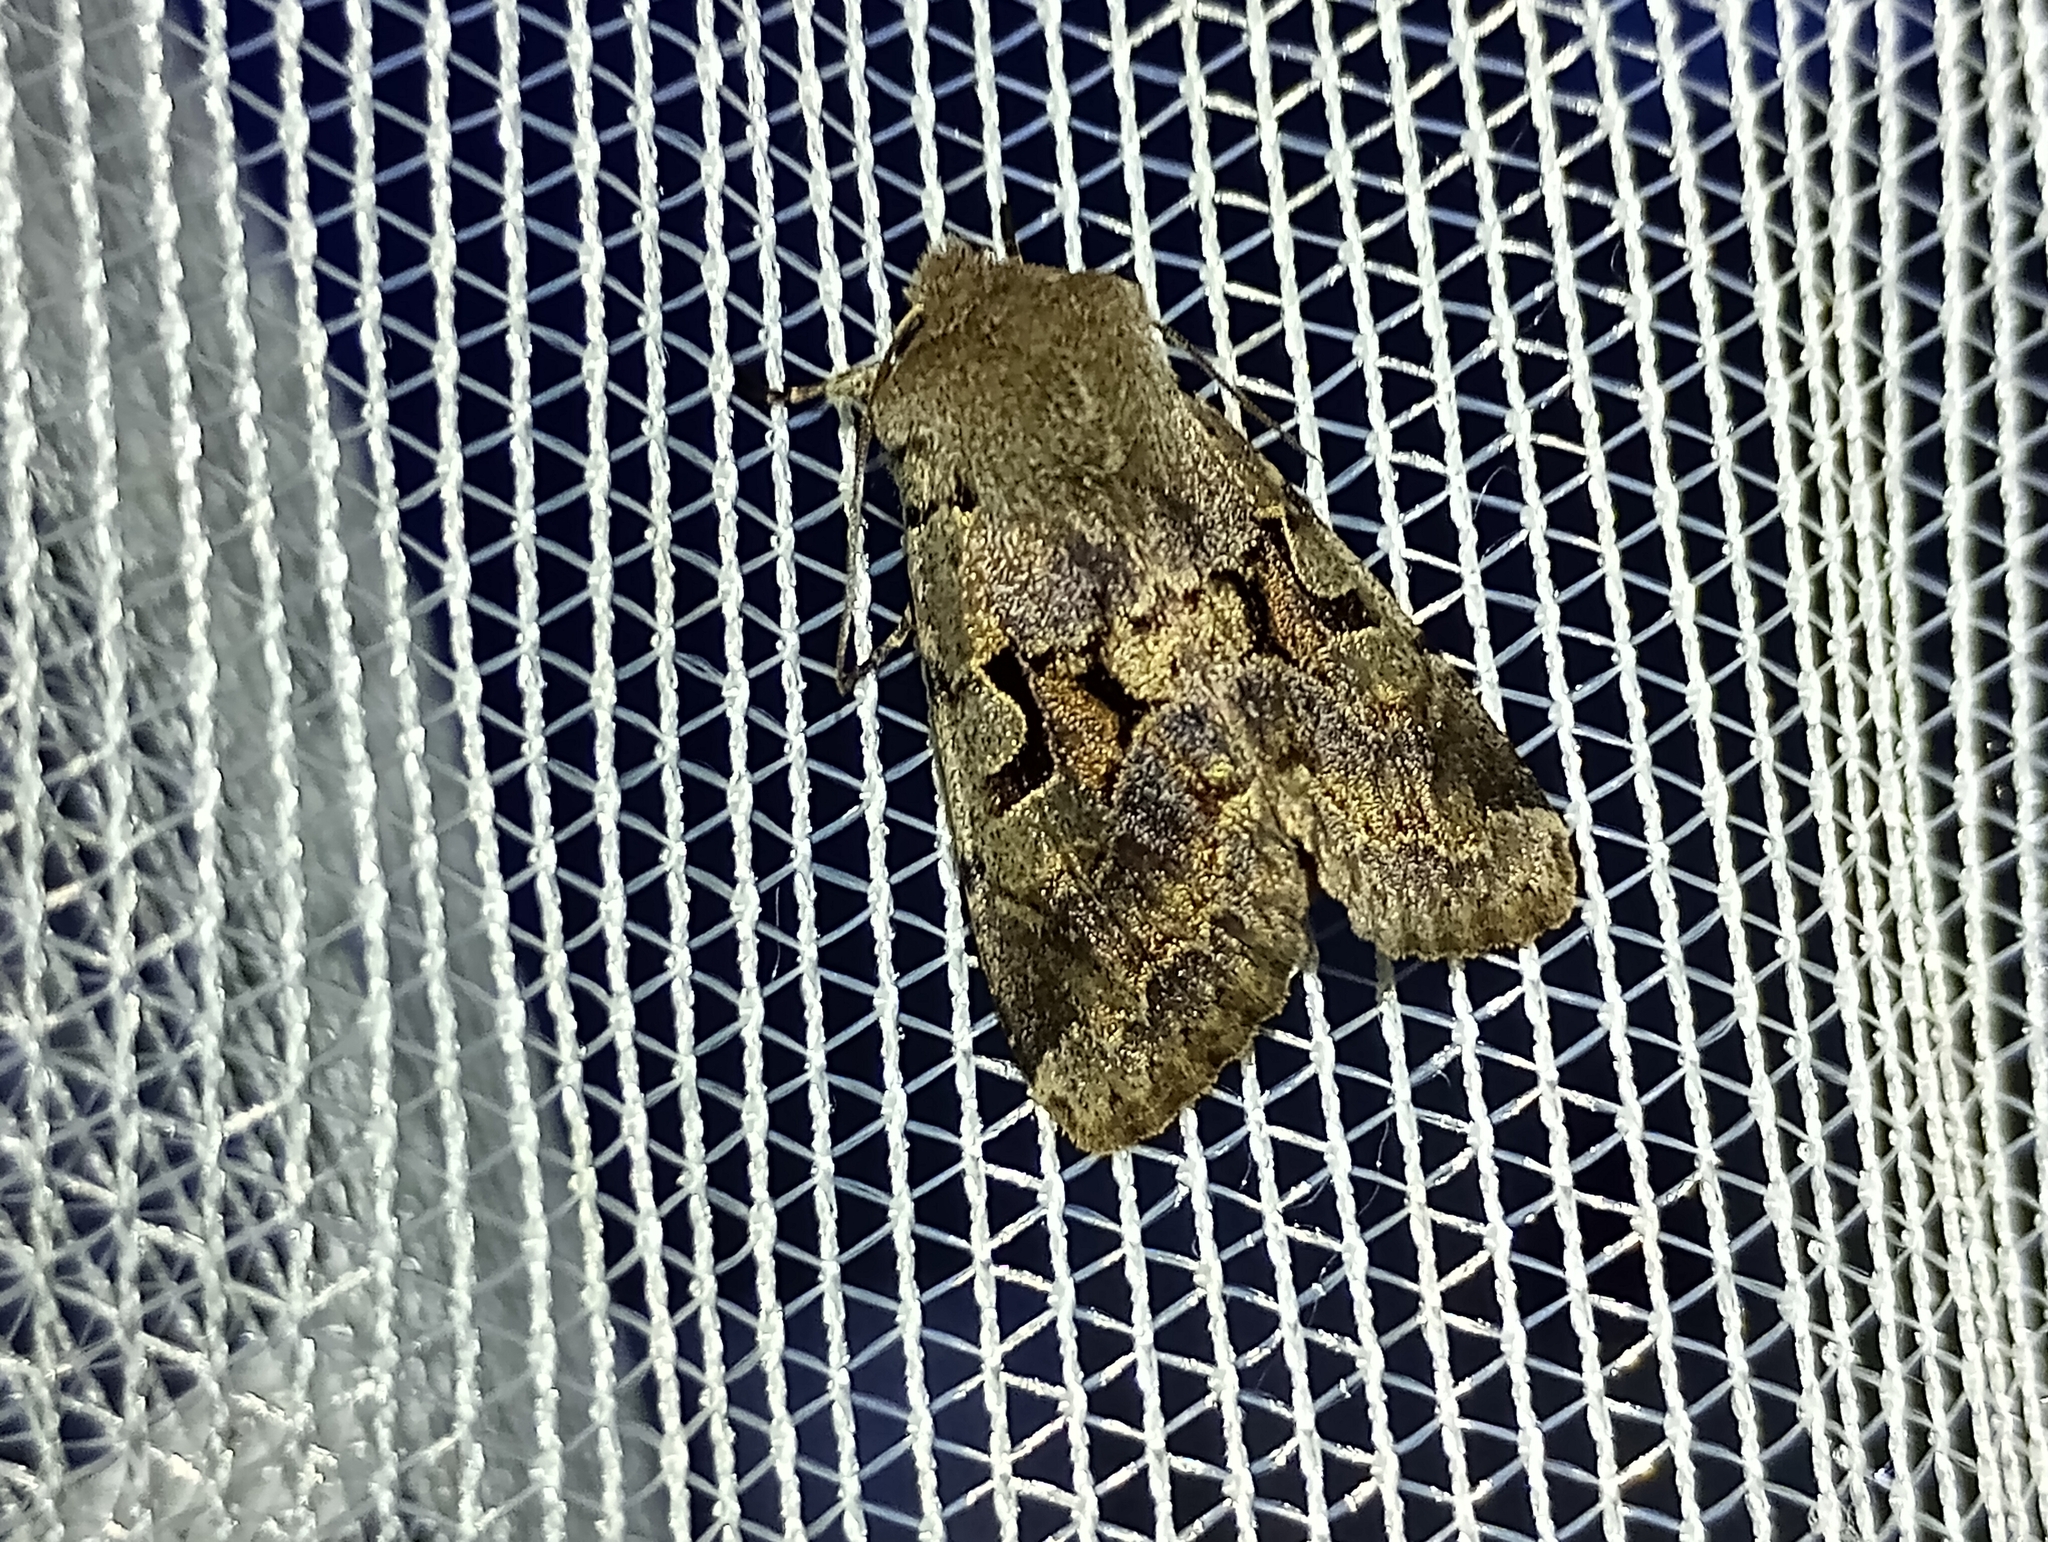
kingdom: Animalia
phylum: Arthropoda
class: Insecta
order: Lepidoptera
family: Noctuidae
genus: Orthosia
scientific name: Orthosia gothica
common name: Hebrew character
